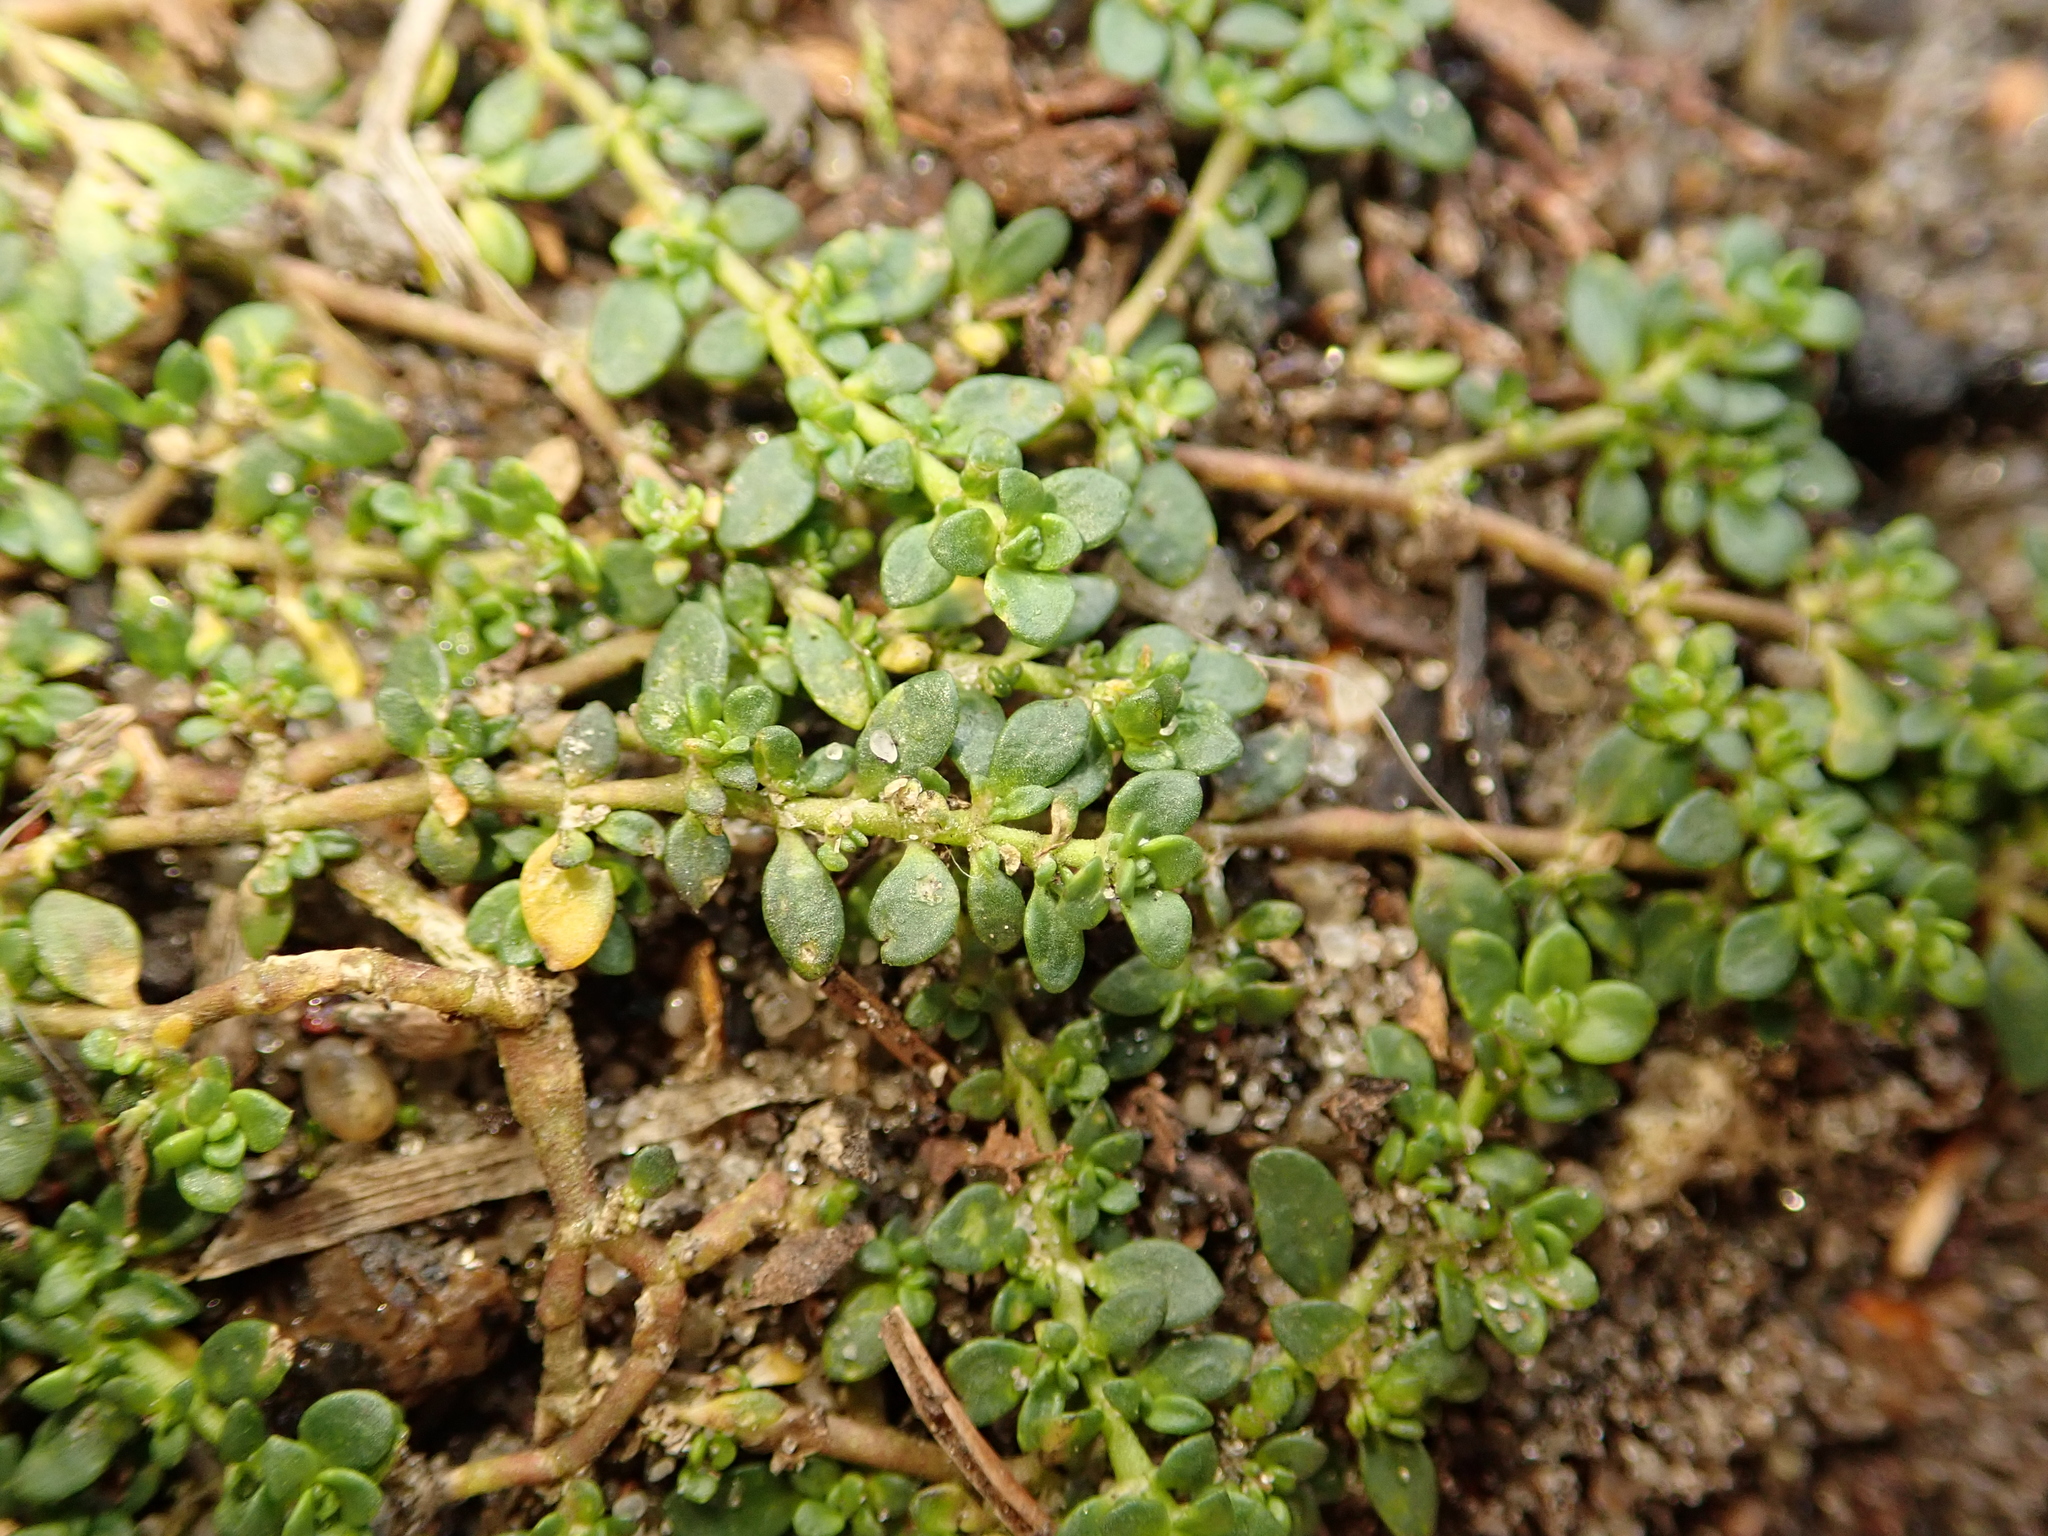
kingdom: Plantae
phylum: Tracheophyta
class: Magnoliopsida
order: Caryophyllales
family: Caryophyllaceae
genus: Herniaria
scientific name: Herniaria glabra
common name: Smooth rupturewort
